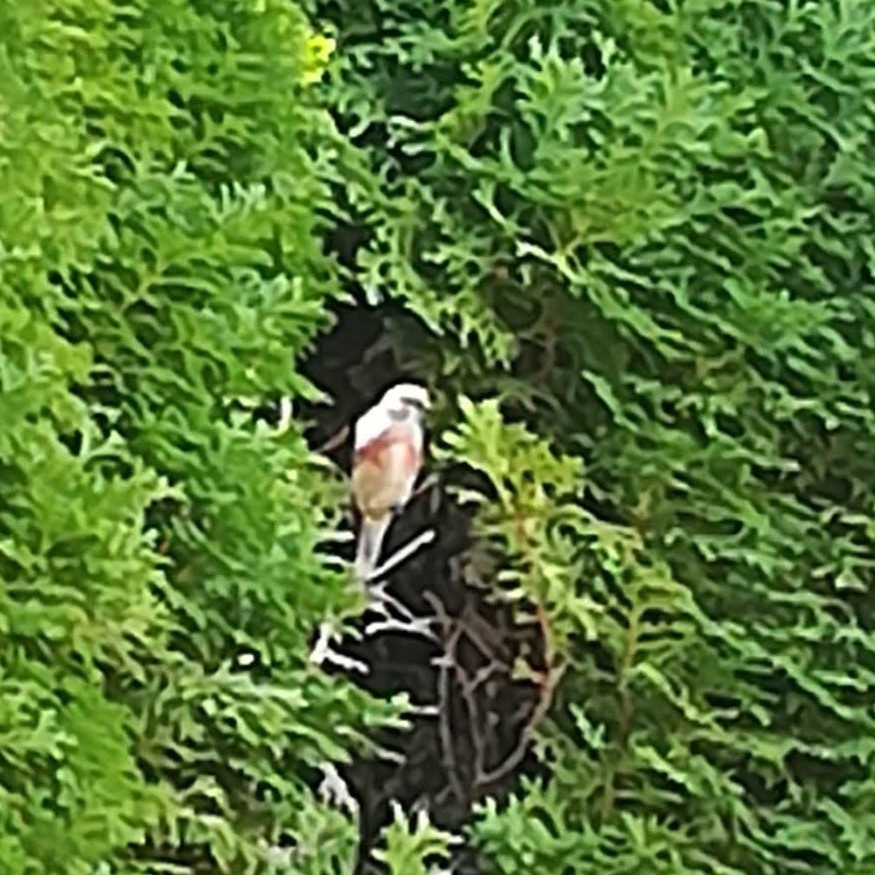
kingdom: Animalia
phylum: Chordata
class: Aves
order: Passeriformes
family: Fringillidae
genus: Linaria
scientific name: Linaria cannabina
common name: Common linnet
